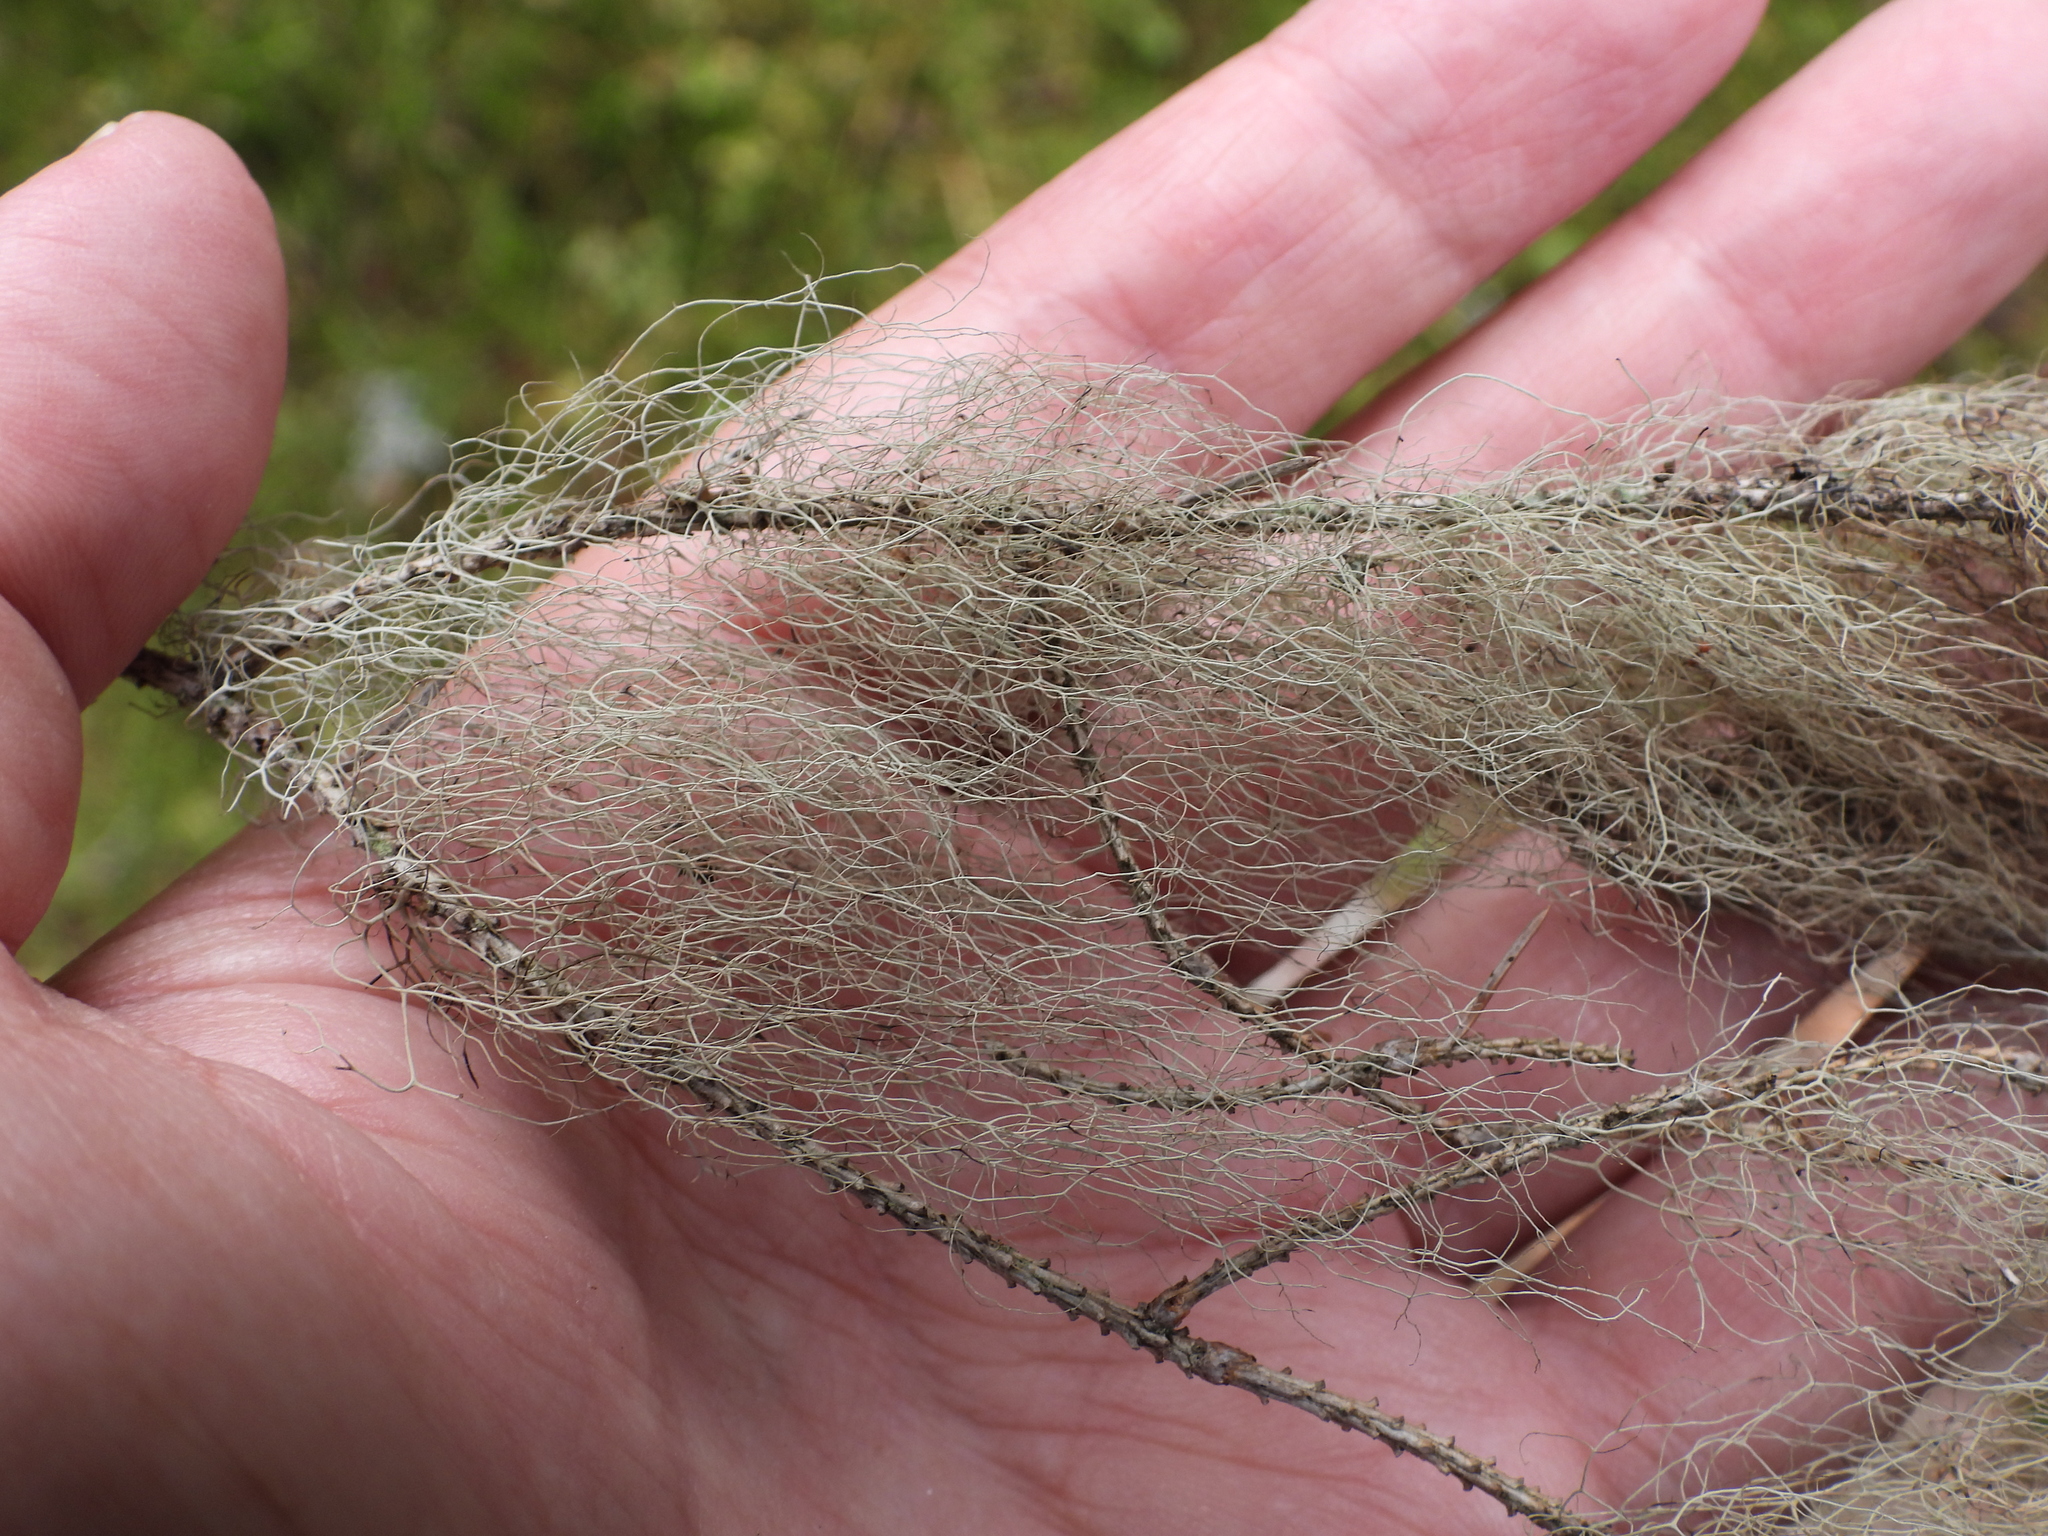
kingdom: Fungi
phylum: Ascomycota
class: Lecanoromycetes
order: Lecanorales
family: Parmeliaceae
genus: Bryoria
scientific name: Bryoria fuscescens
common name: Pale-footed horsehair lichen
